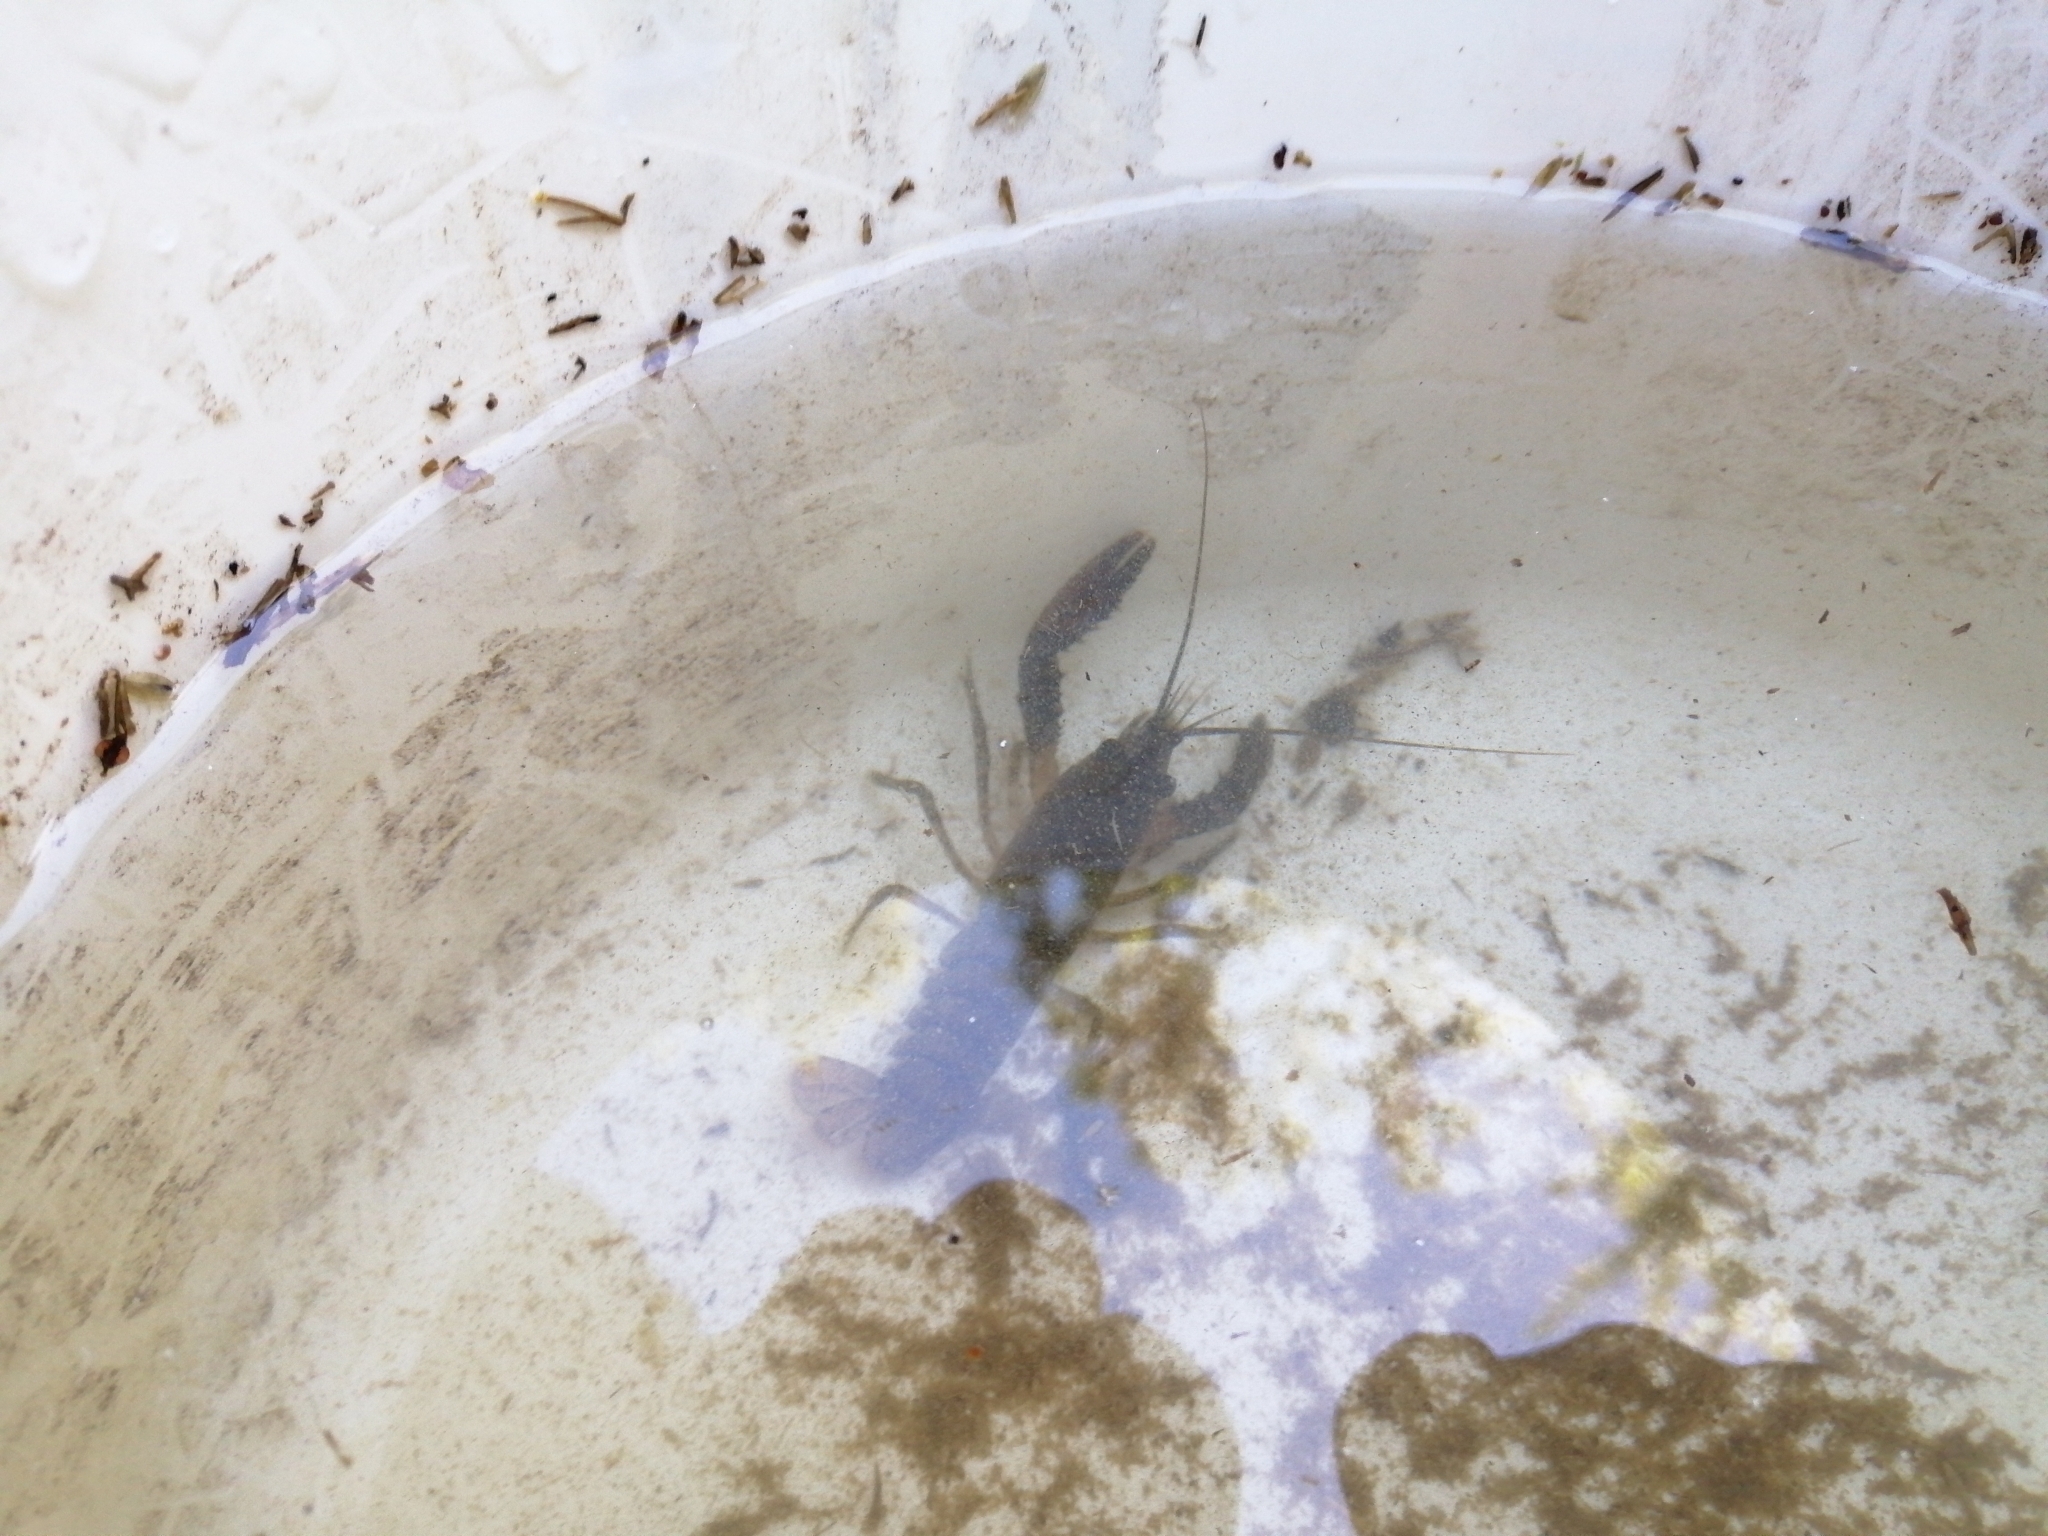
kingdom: Animalia
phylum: Arthropoda
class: Malacostraca
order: Decapoda
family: Parastacidae
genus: Paranephrops
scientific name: Paranephrops planifrons
